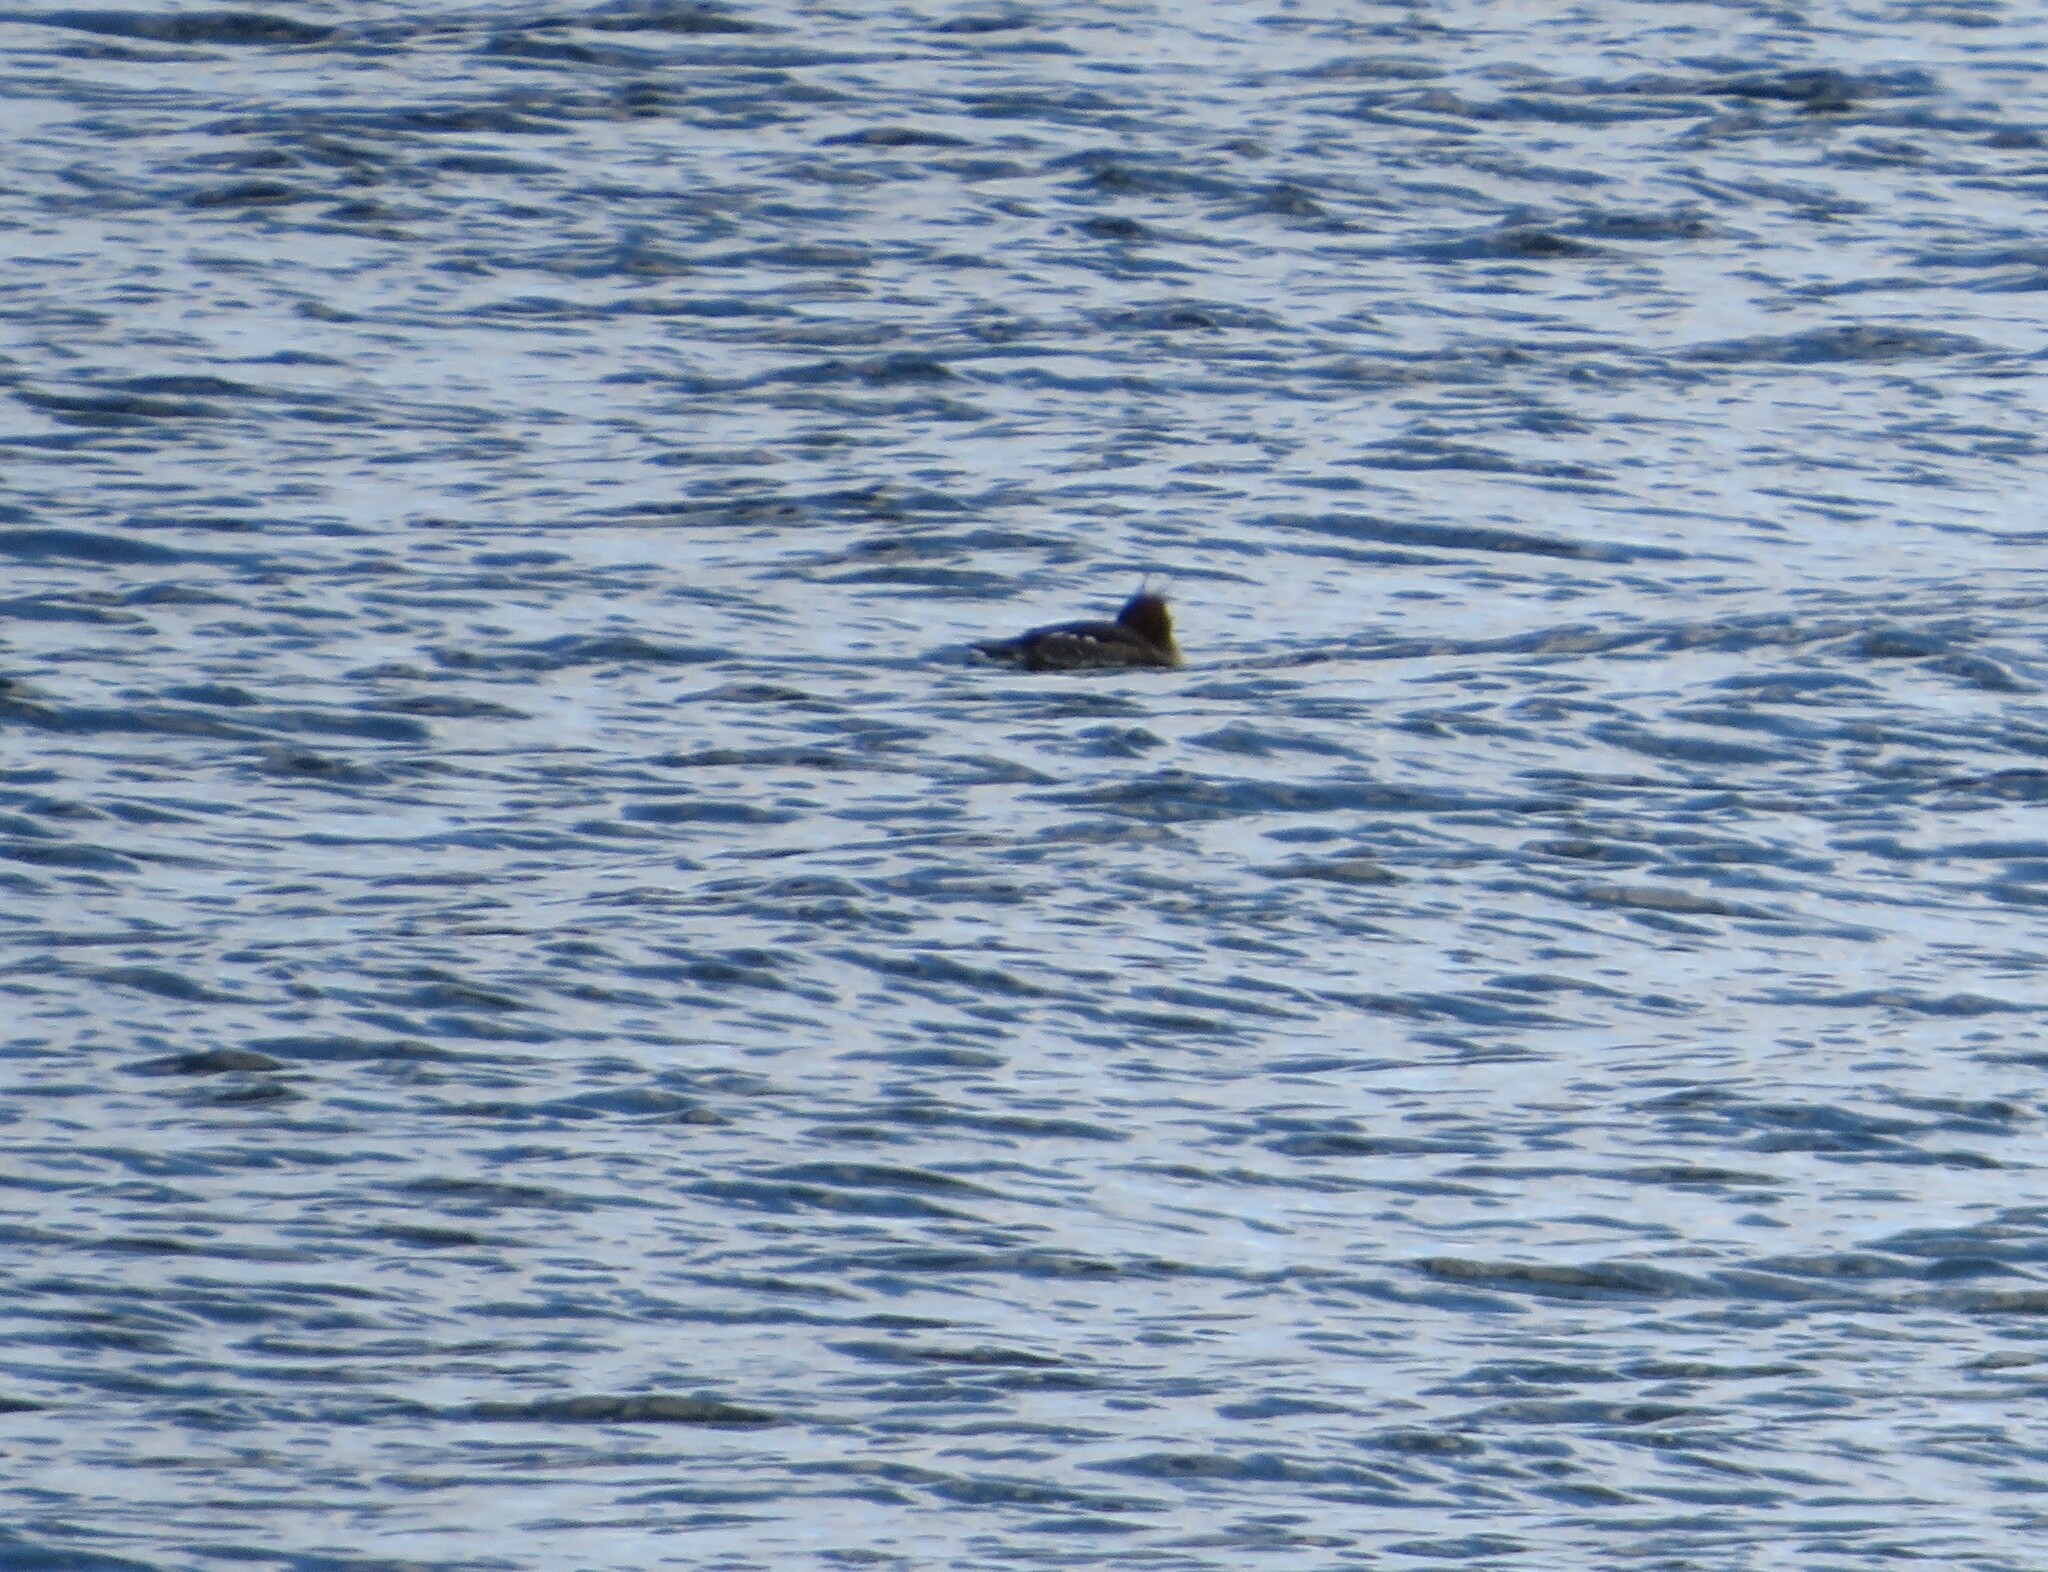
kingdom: Animalia
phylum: Chordata
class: Aves
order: Anseriformes
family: Anatidae
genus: Mergus
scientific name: Mergus serrator
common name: Red-breasted merganser
